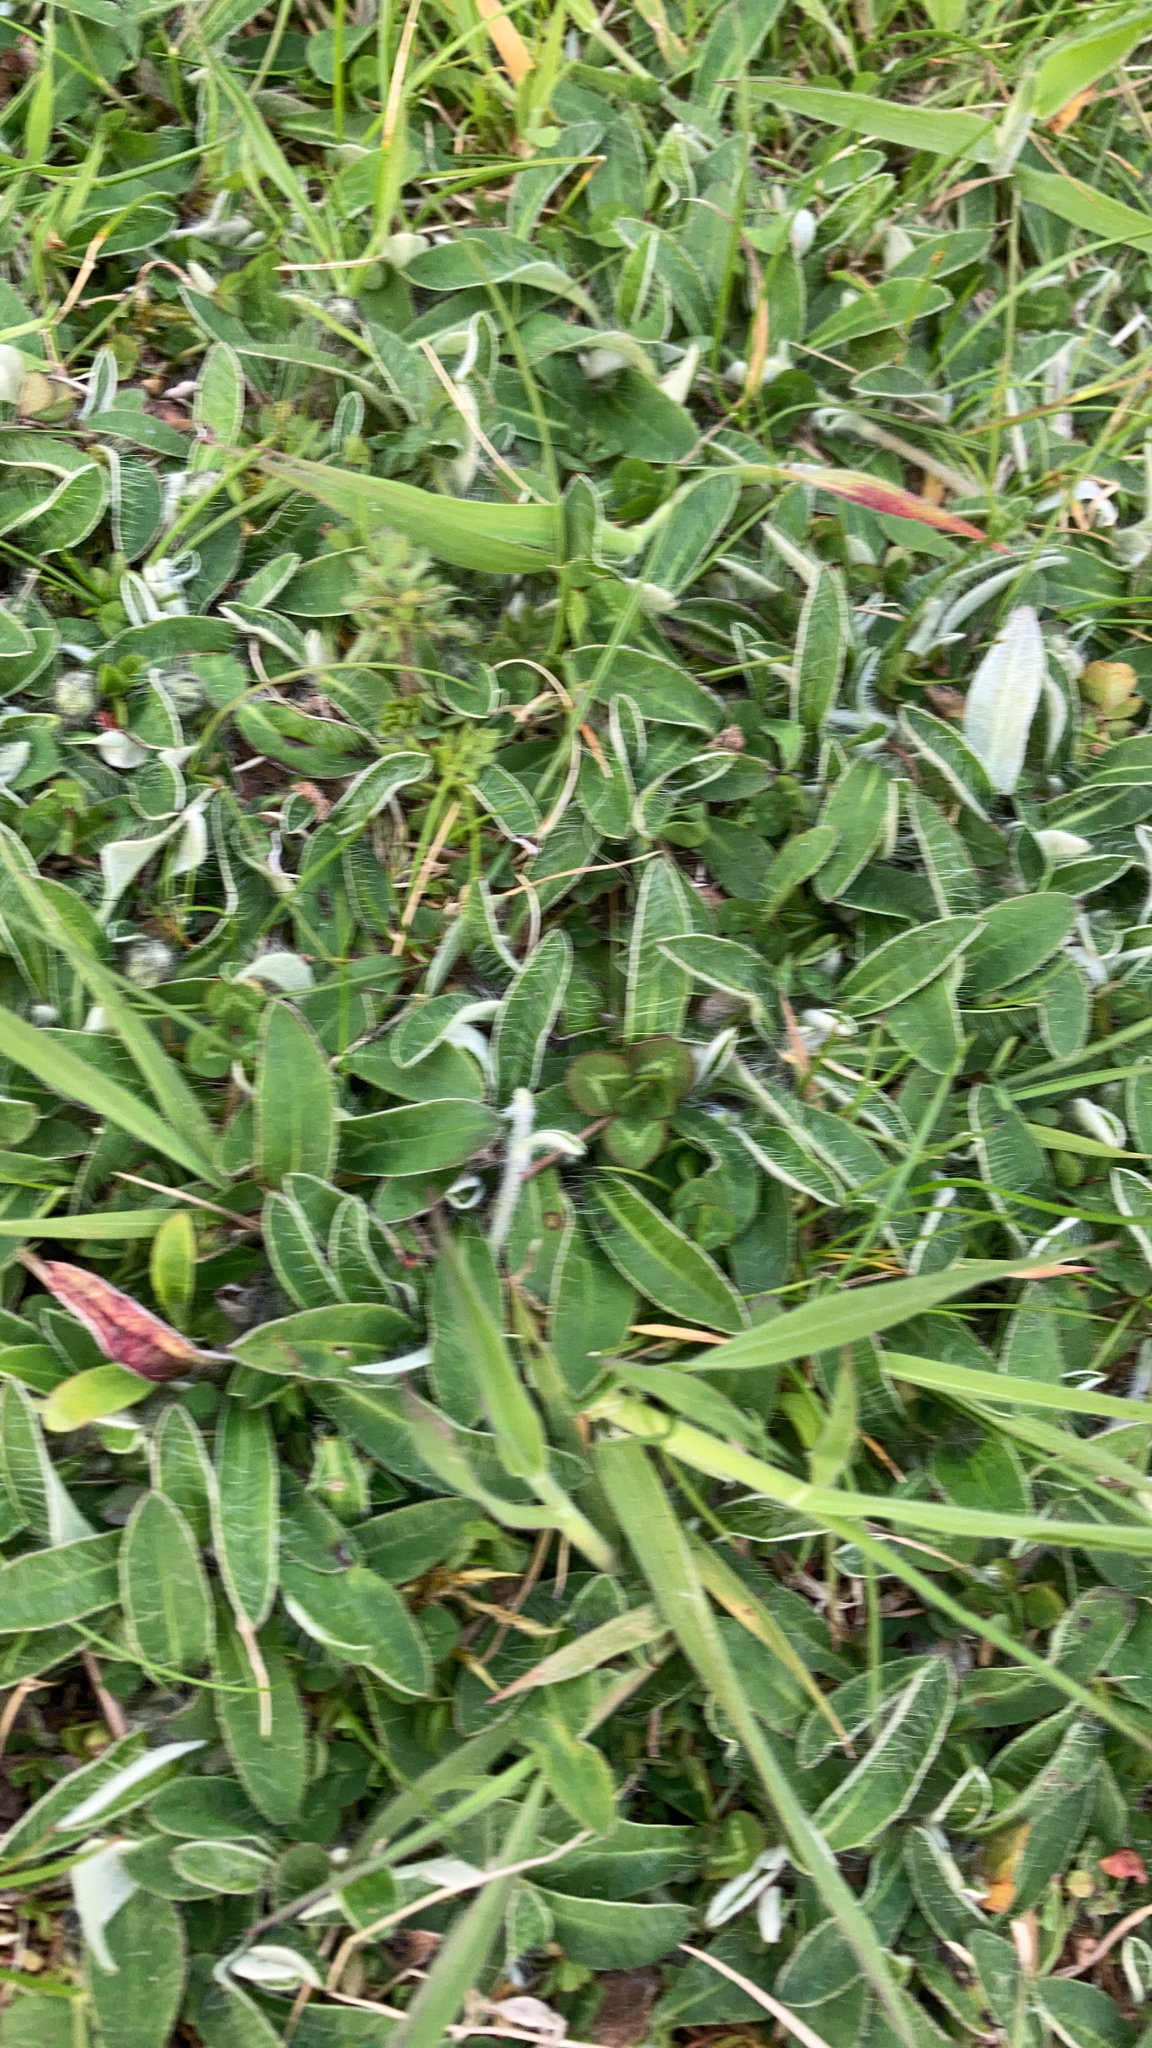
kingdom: Plantae
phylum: Tracheophyta
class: Magnoliopsida
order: Asterales
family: Asteraceae
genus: Pilosella
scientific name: Pilosella officinarum
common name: Mouse-ear hawkweed
